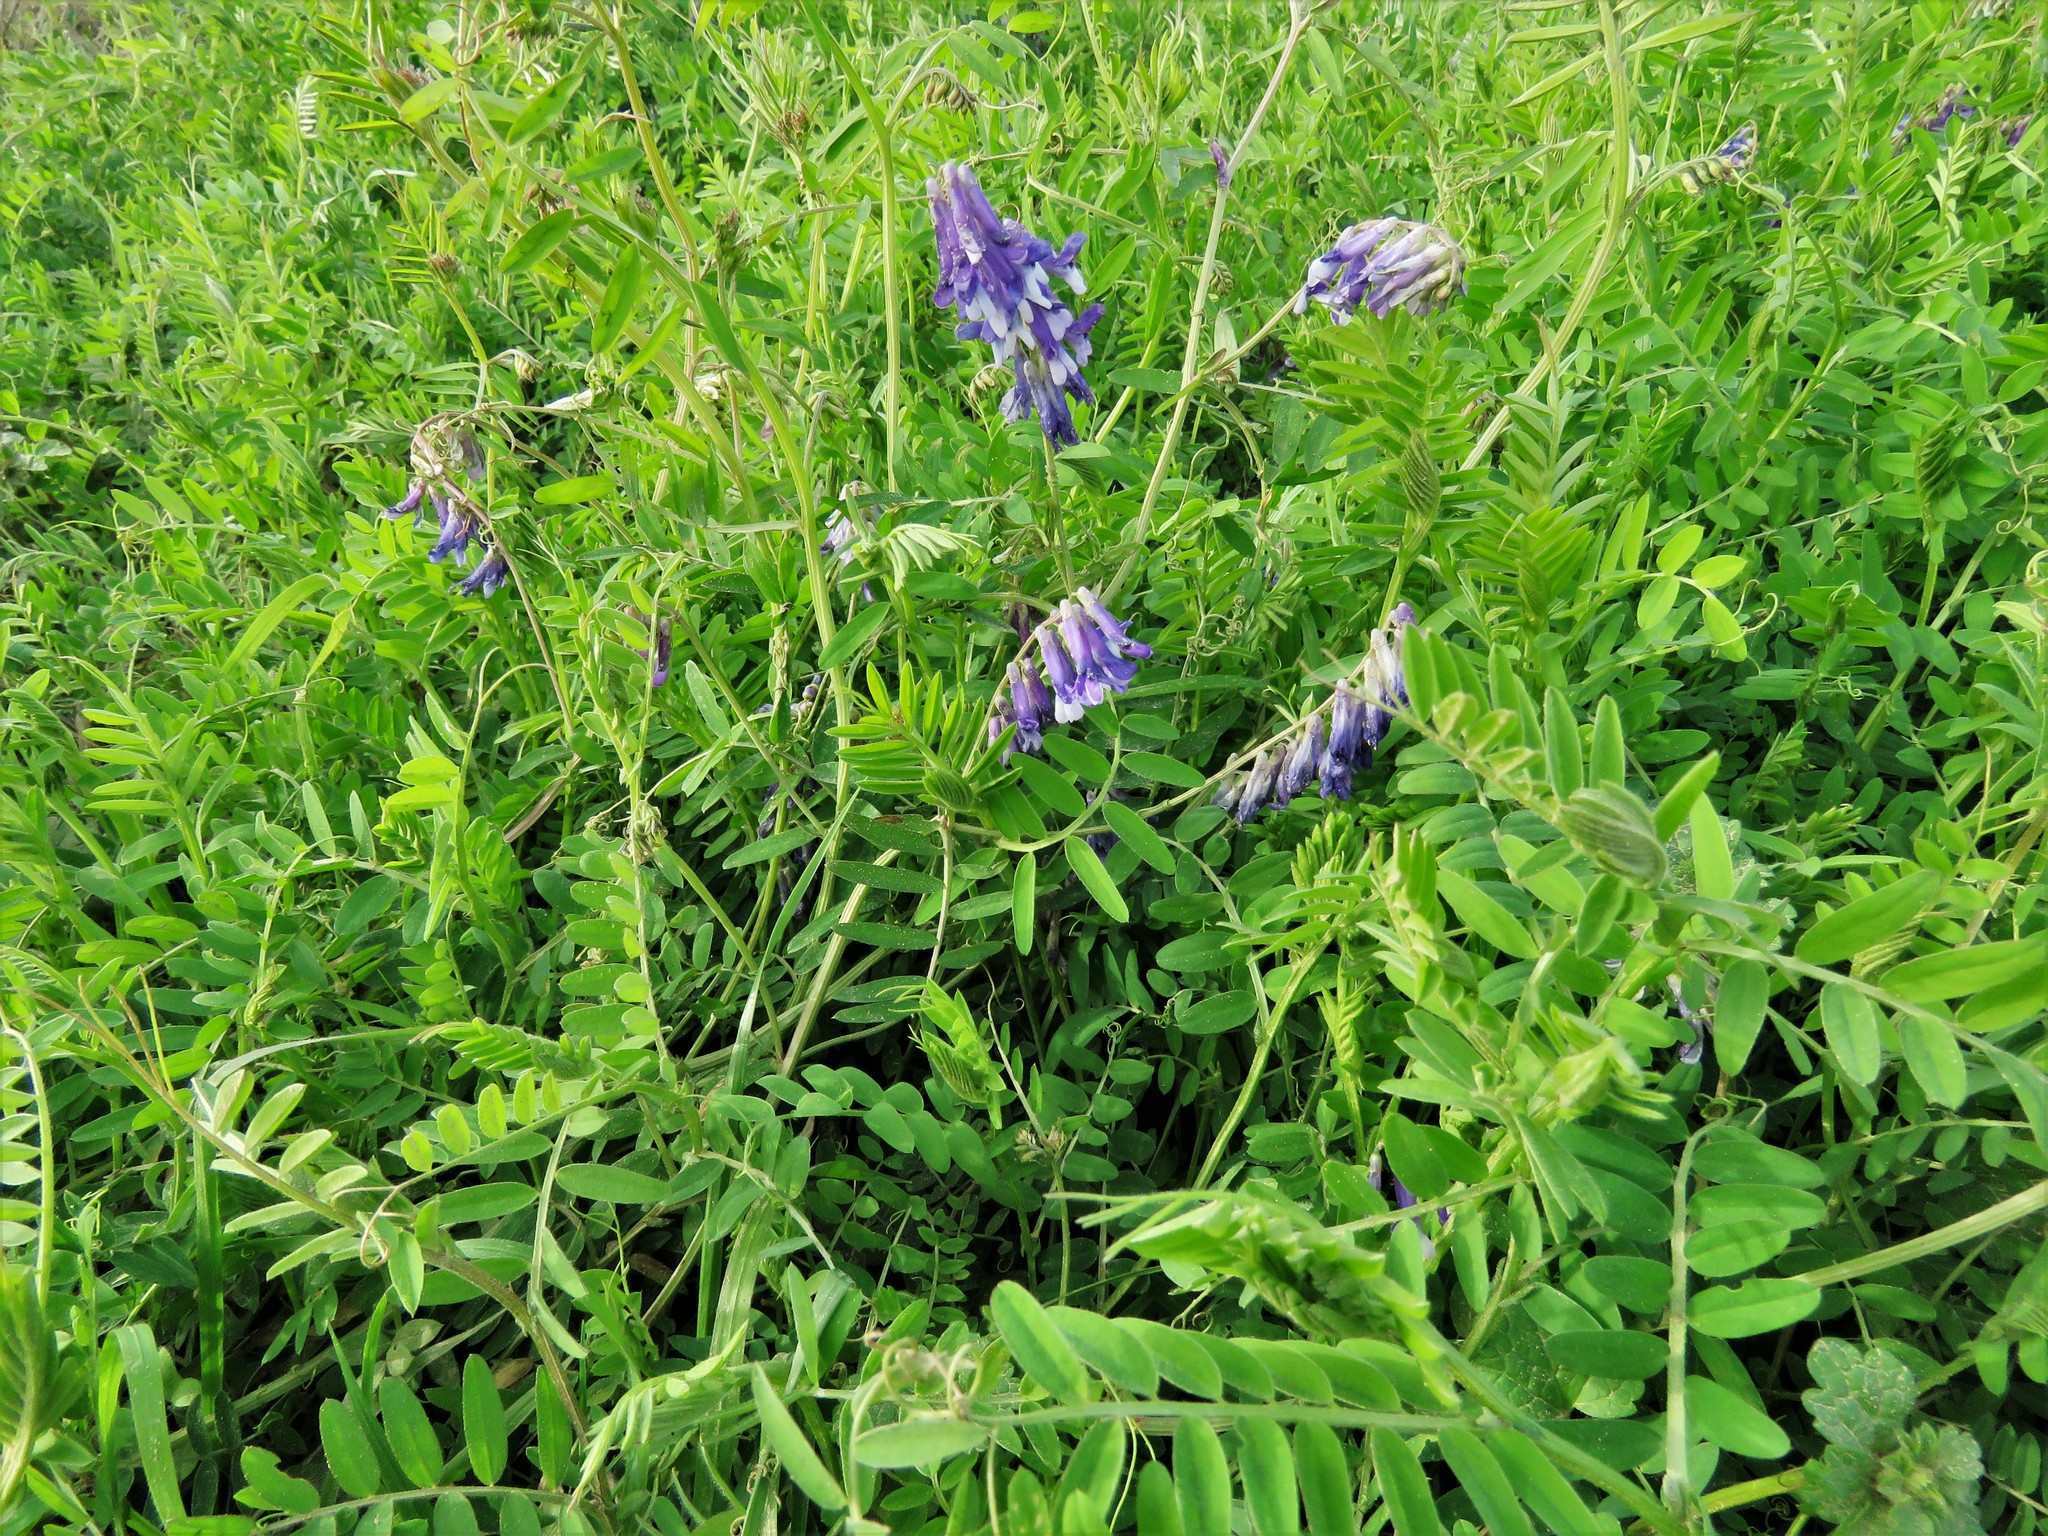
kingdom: Plantae
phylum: Tracheophyta
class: Magnoliopsida
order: Fabales
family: Fabaceae
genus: Vicia
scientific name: Vicia villosa
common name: Fodder vetch
